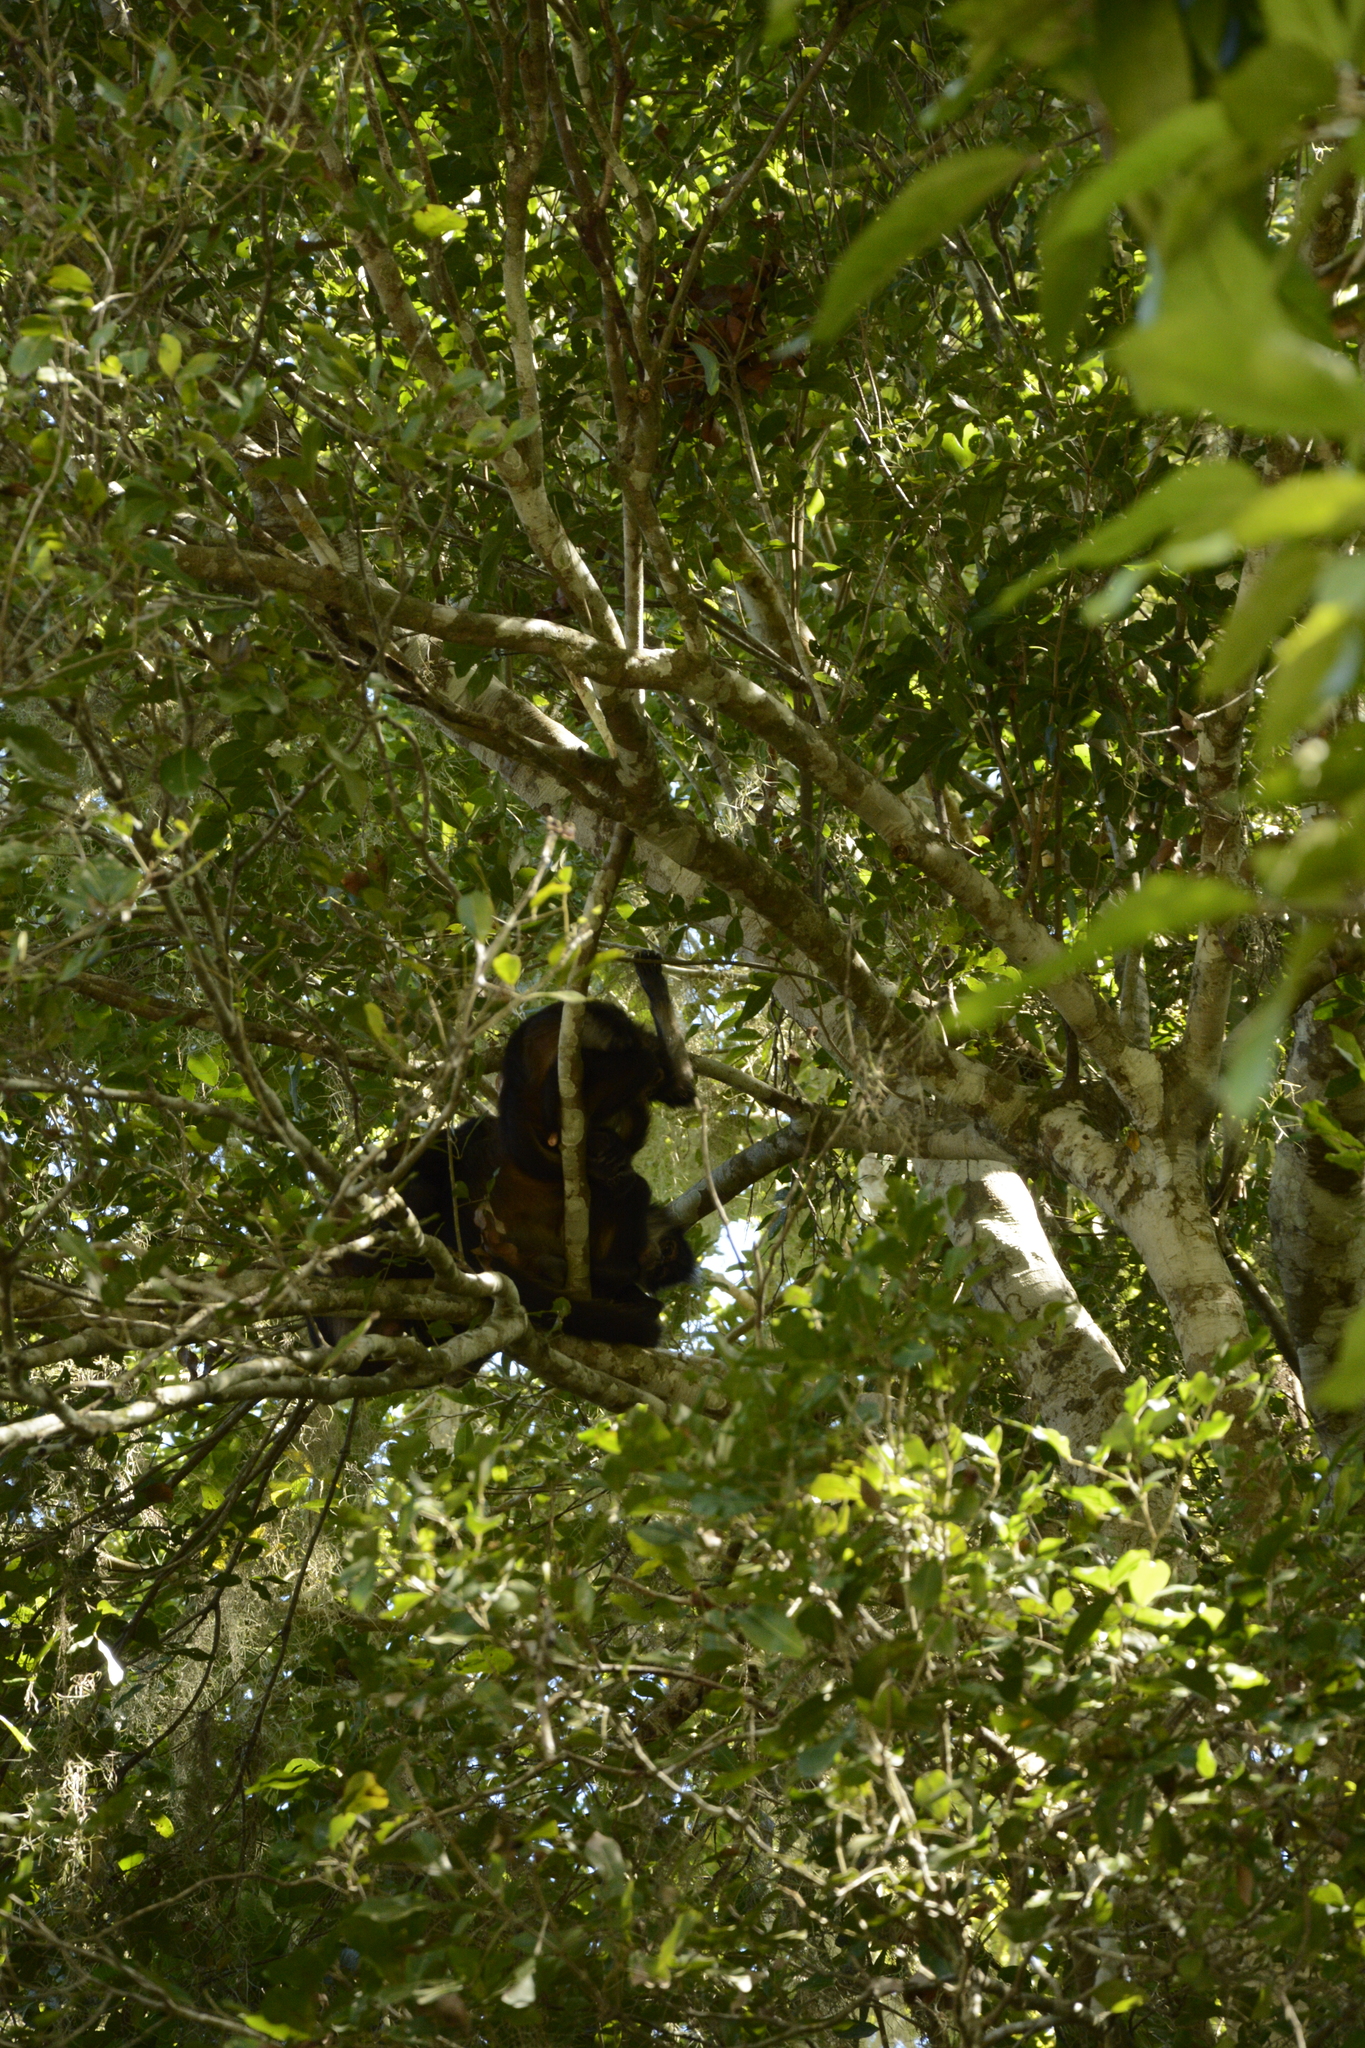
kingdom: Animalia
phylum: Chordata
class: Mammalia
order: Primates
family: Atelidae
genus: Ateles
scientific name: Ateles geoffroyi
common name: Black-handed spider monkey
